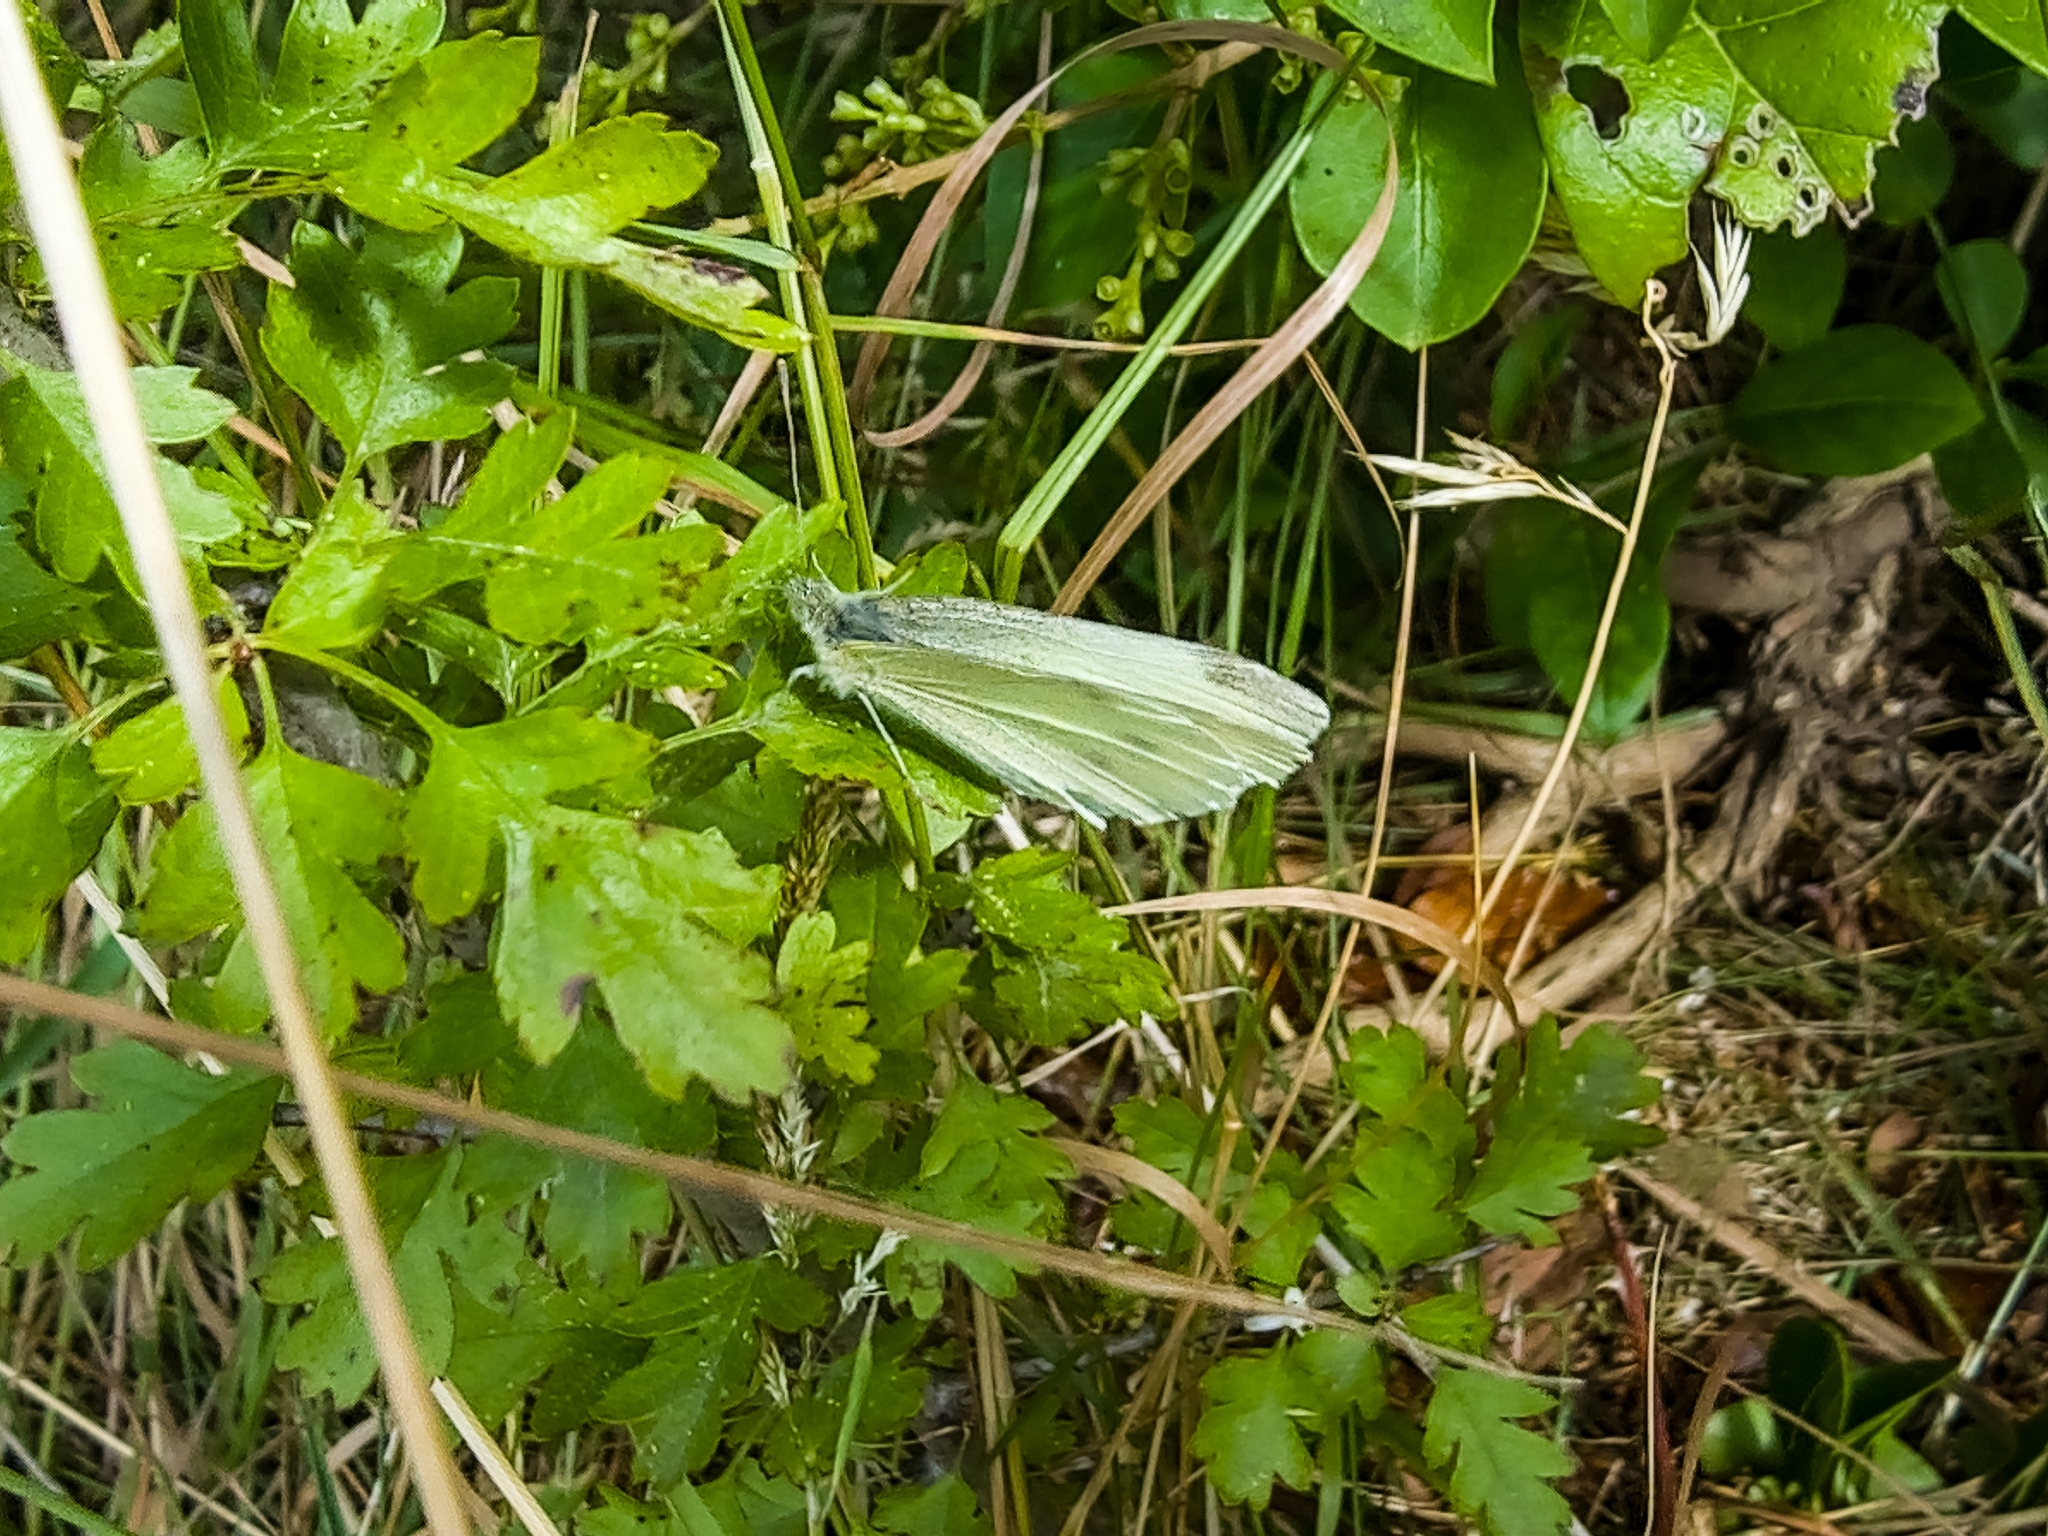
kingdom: Animalia
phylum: Arthropoda
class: Insecta
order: Lepidoptera
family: Pieridae
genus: Pieris
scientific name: Pieris rapae
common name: Small white
